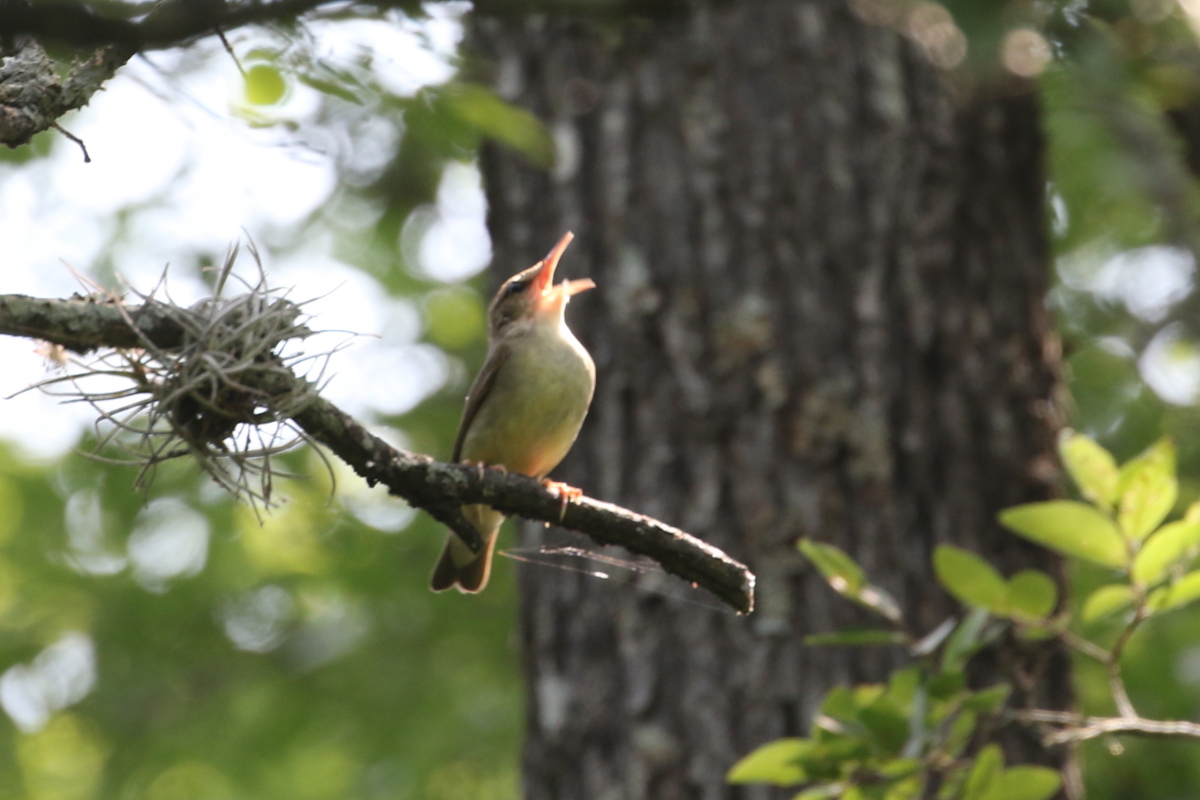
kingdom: Animalia
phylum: Chordata
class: Aves
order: Passeriformes
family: Parulidae
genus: Limnothlypis
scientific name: Limnothlypis swainsonii
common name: Swainson's warbler
